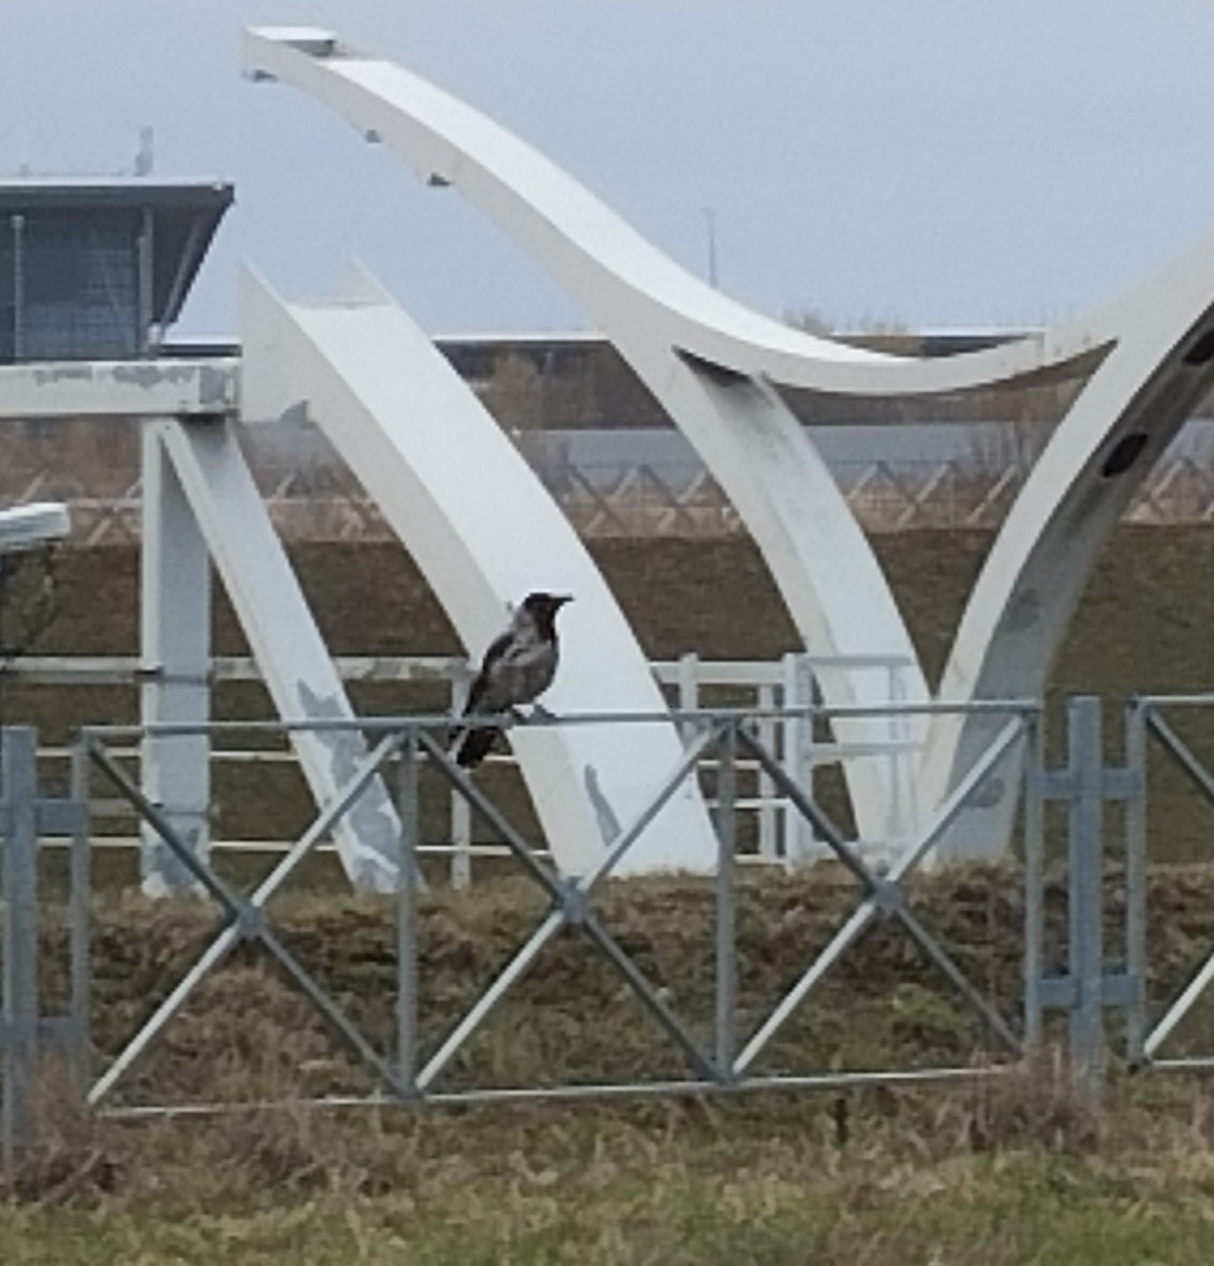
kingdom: Animalia
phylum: Chordata
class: Aves
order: Passeriformes
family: Corvidae
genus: Corvus
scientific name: Corvus cornix
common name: Hooded crow
